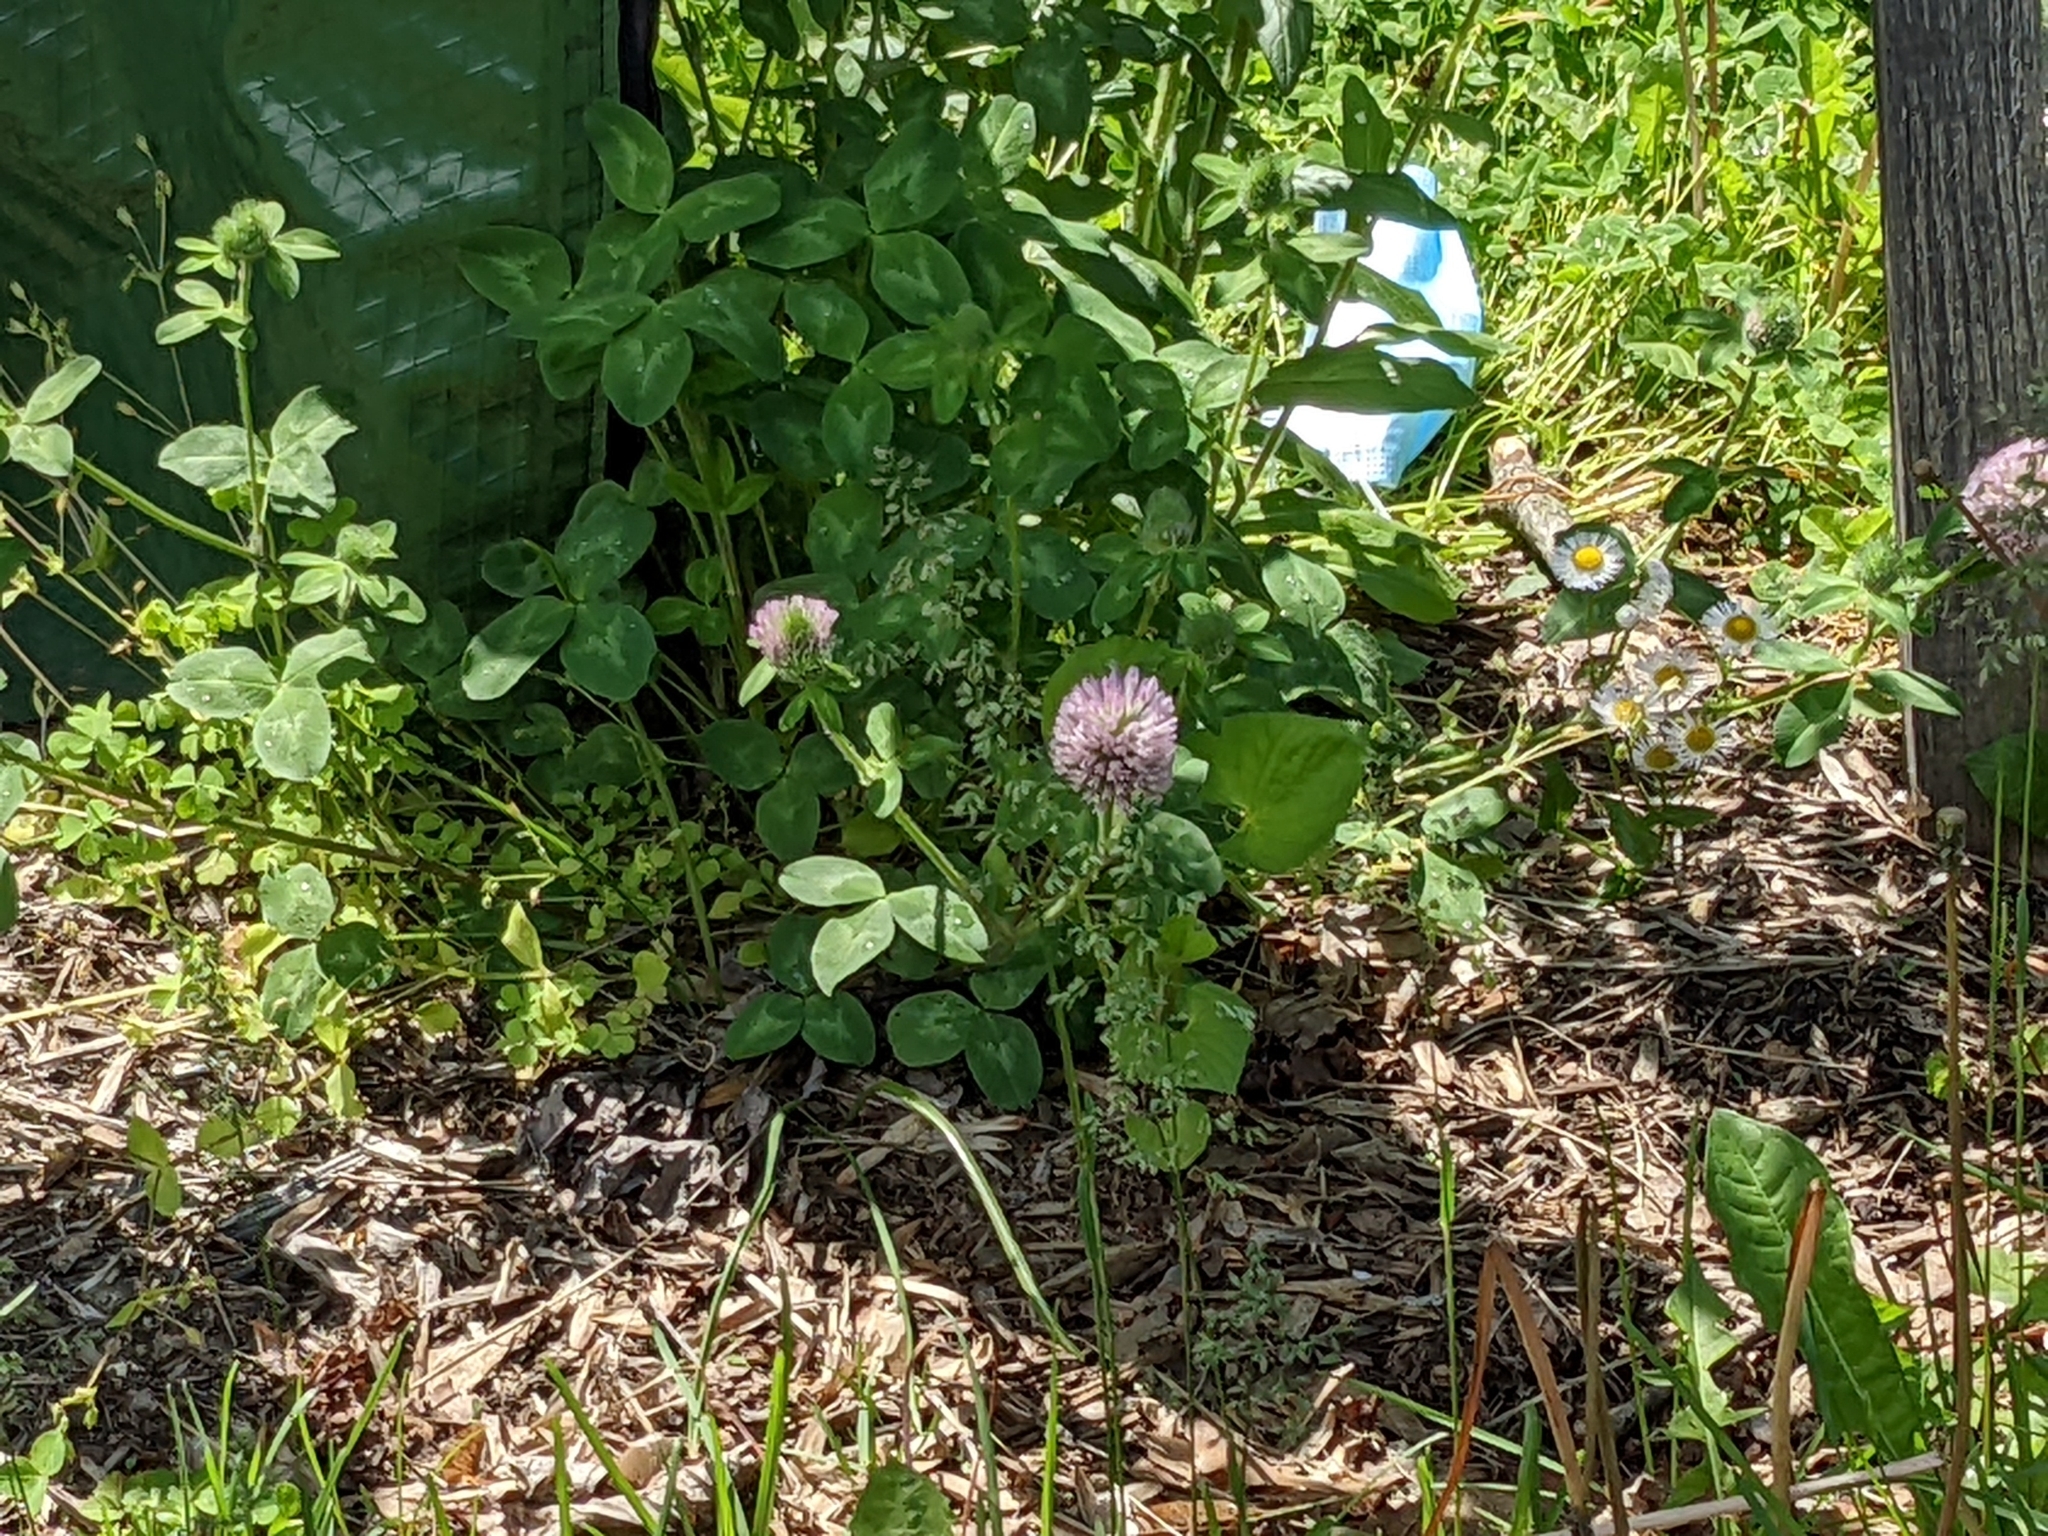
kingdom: Plantae
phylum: Tracheophyta
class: Magnoliopsida
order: Fabales
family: Fabaceae
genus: Trifolium
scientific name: Trifolium pratense
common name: Red clover
